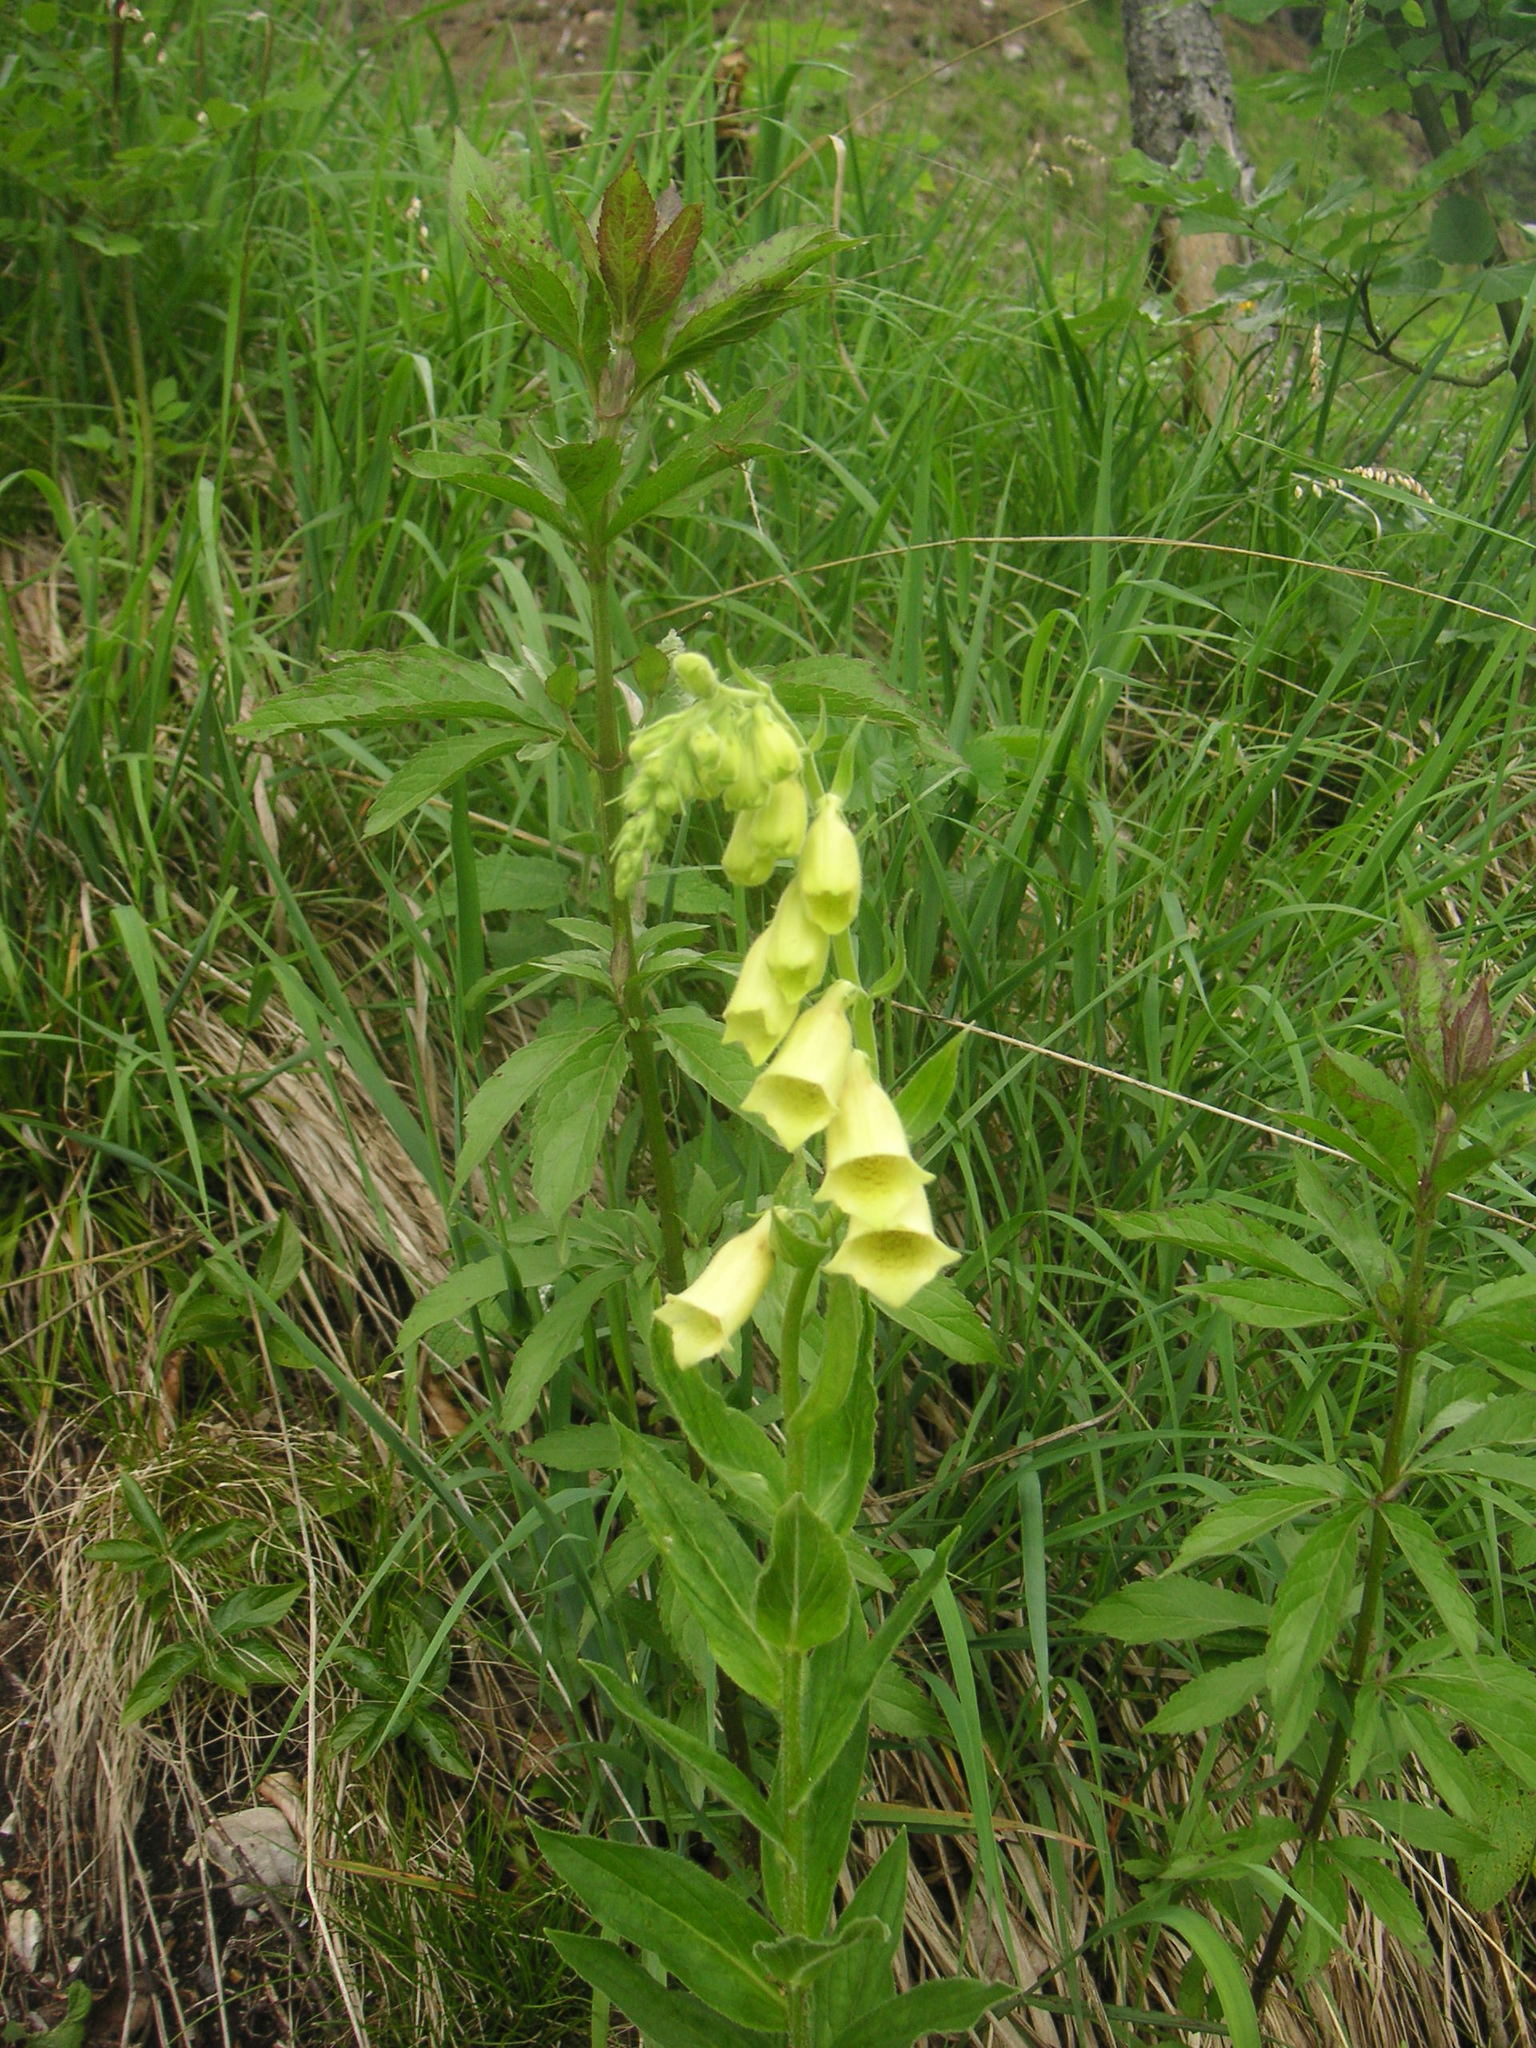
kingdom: Plantae
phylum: Tracheophyta
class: Magnoliopsida
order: Lamiales
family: Plantaginaceae
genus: Digitalis
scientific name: Digitalis grandiflora
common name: Yellow foxglove
